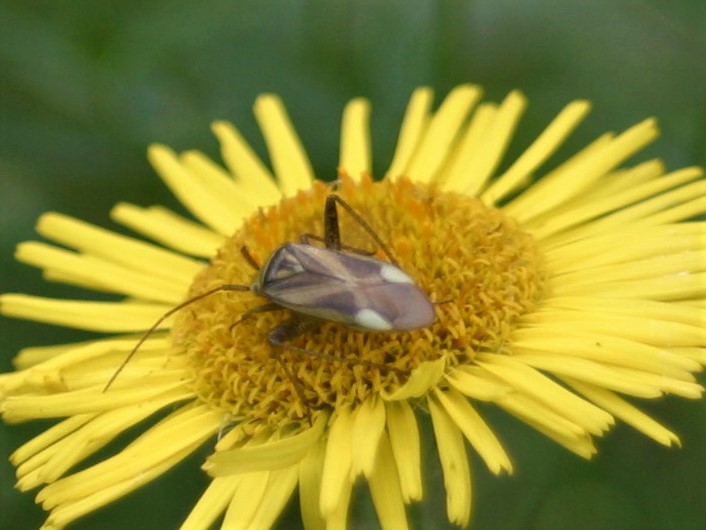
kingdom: Animalia
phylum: Arthropoda
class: Insecta
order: Hemiptera
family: Miridae
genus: Adelphocoris
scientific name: Adelphocoris lineolatus
